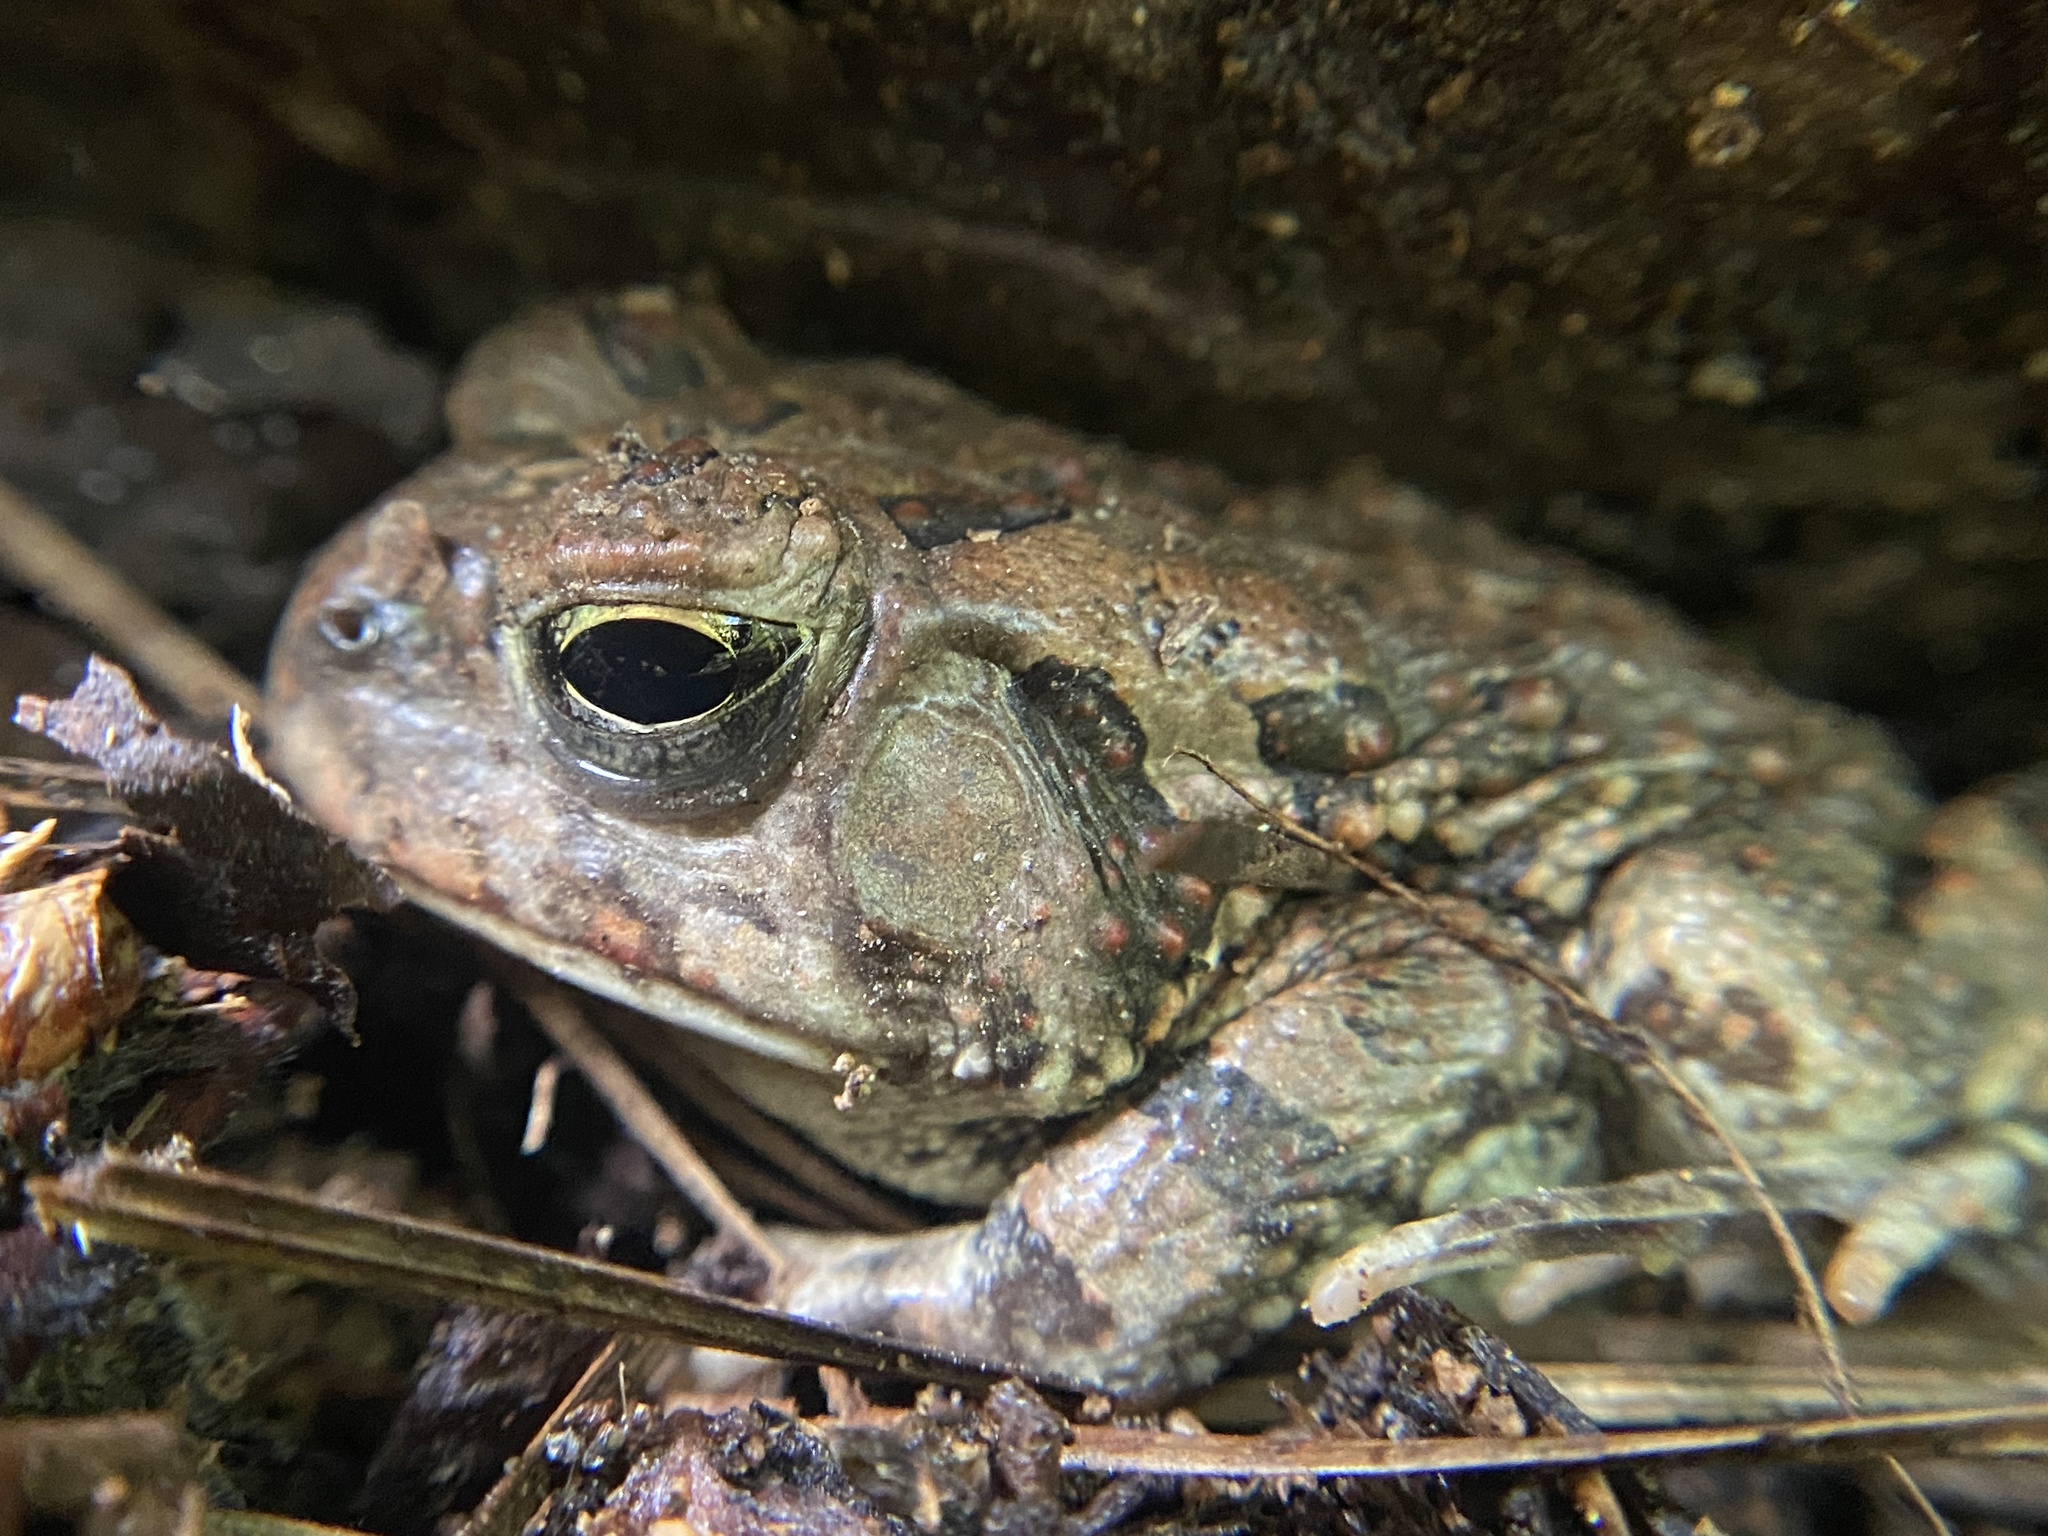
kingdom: Animalia
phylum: Chordata
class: Amphibia
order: Anura
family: Bufonidae
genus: Anaxyrus
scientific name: Anaxyrus fowleri
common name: Fowler's toad
